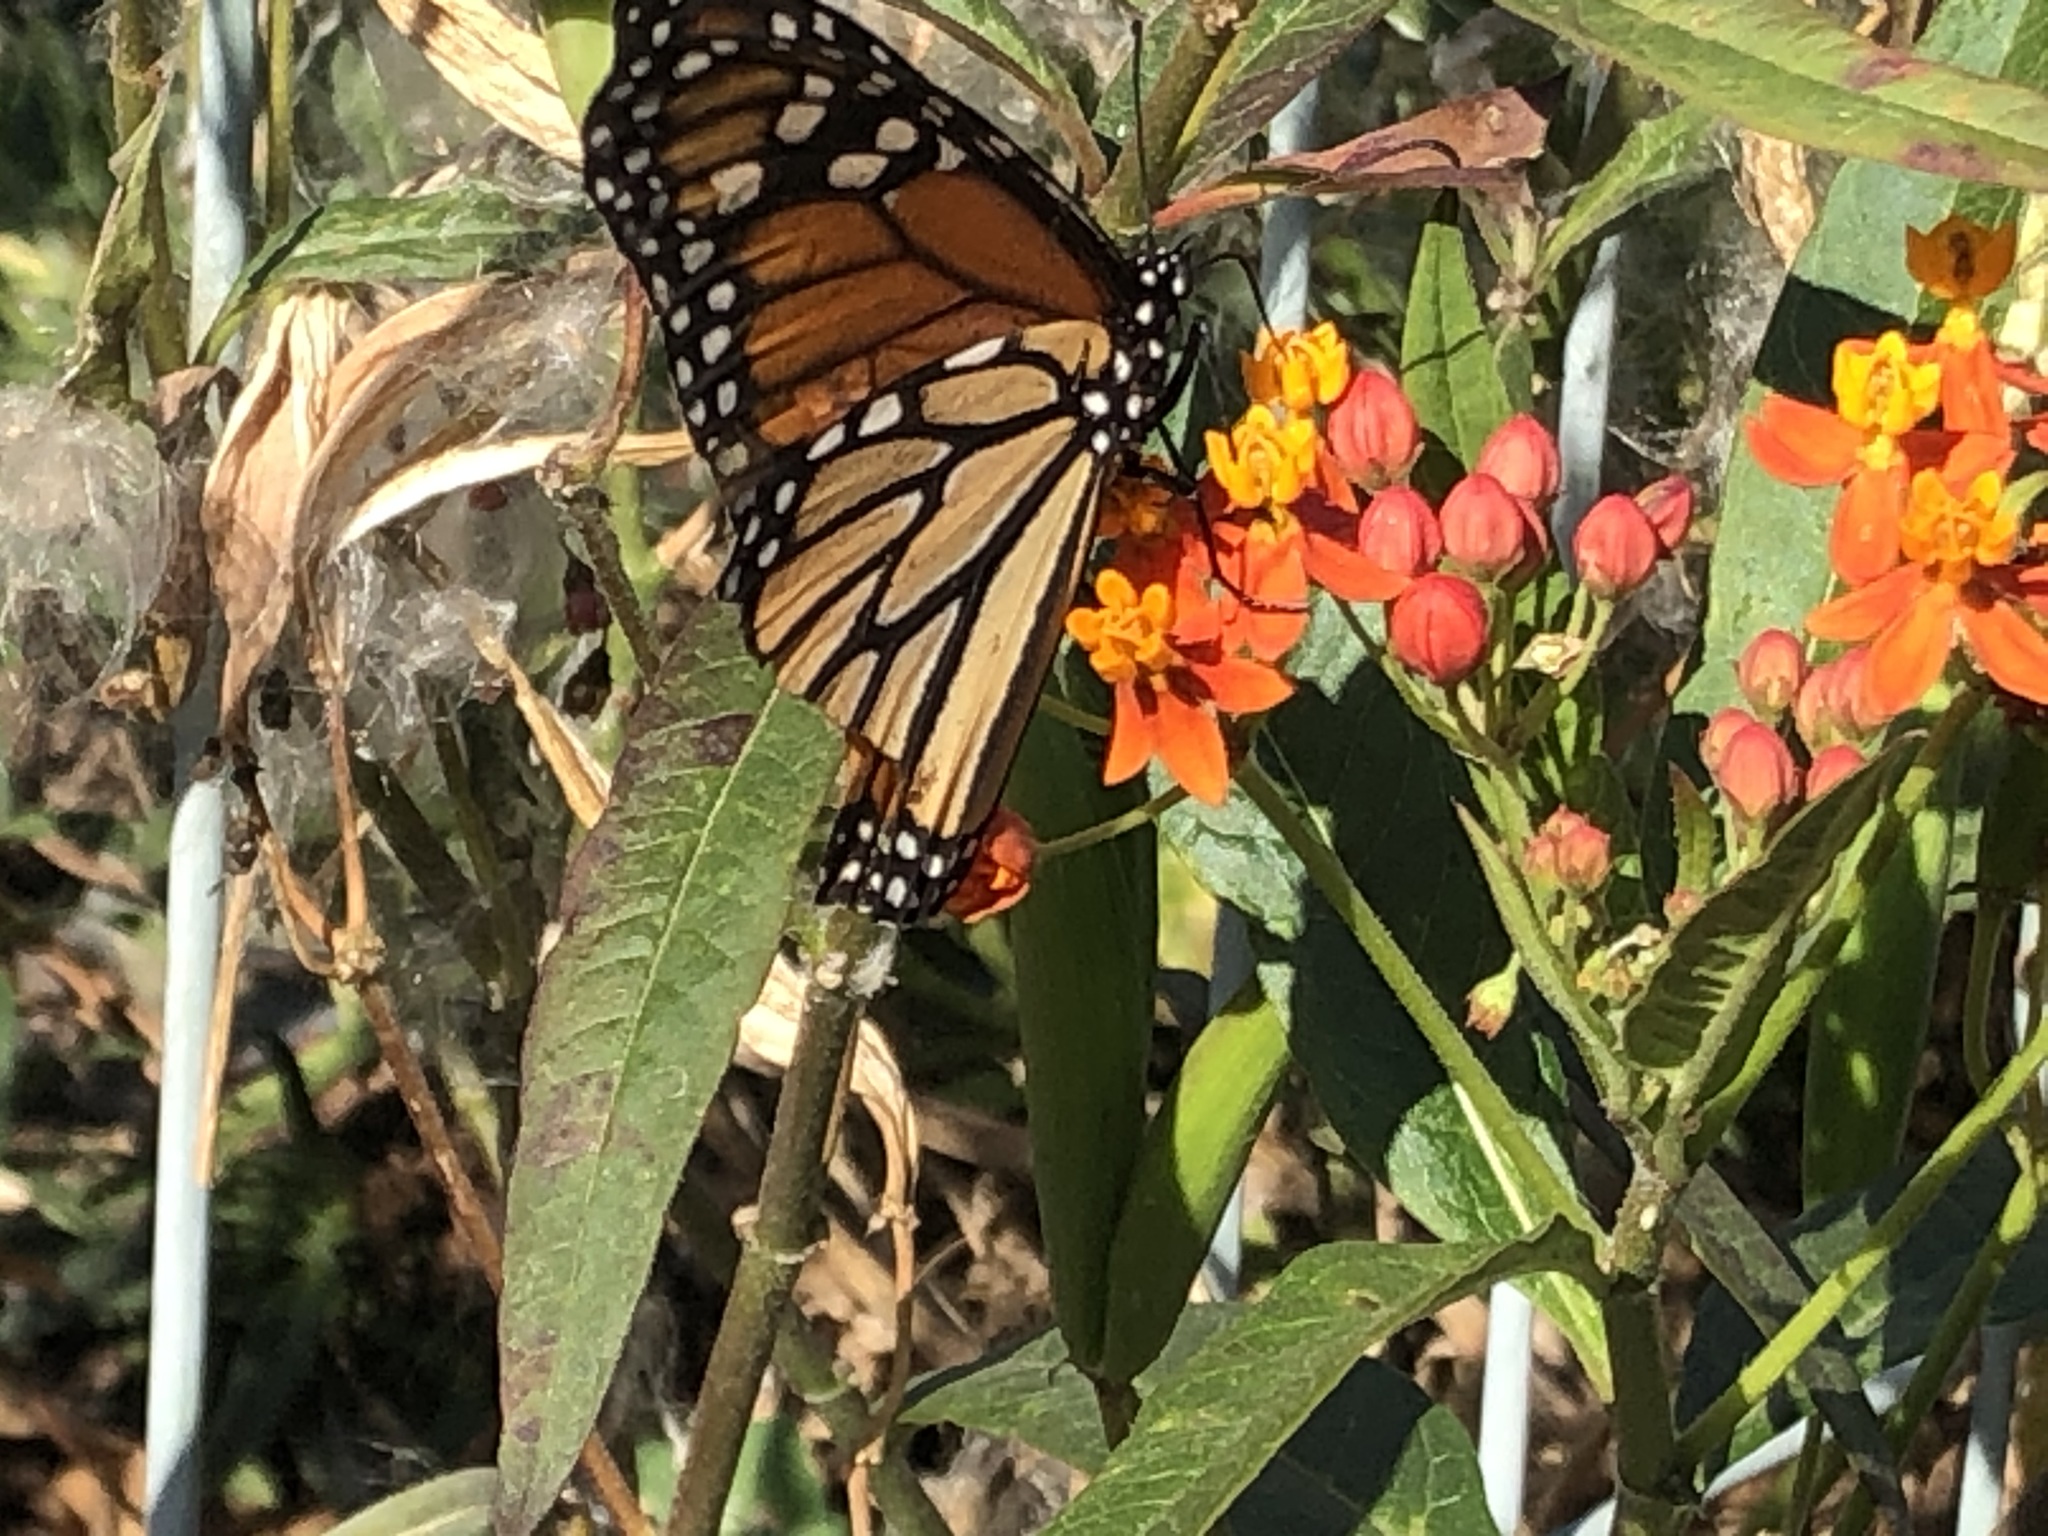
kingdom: Animalia
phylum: Arthropoda
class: Insecta
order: Lepidoptera
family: Nymphalidae
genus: Danaus
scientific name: Danaus plexippus
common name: Monarch
